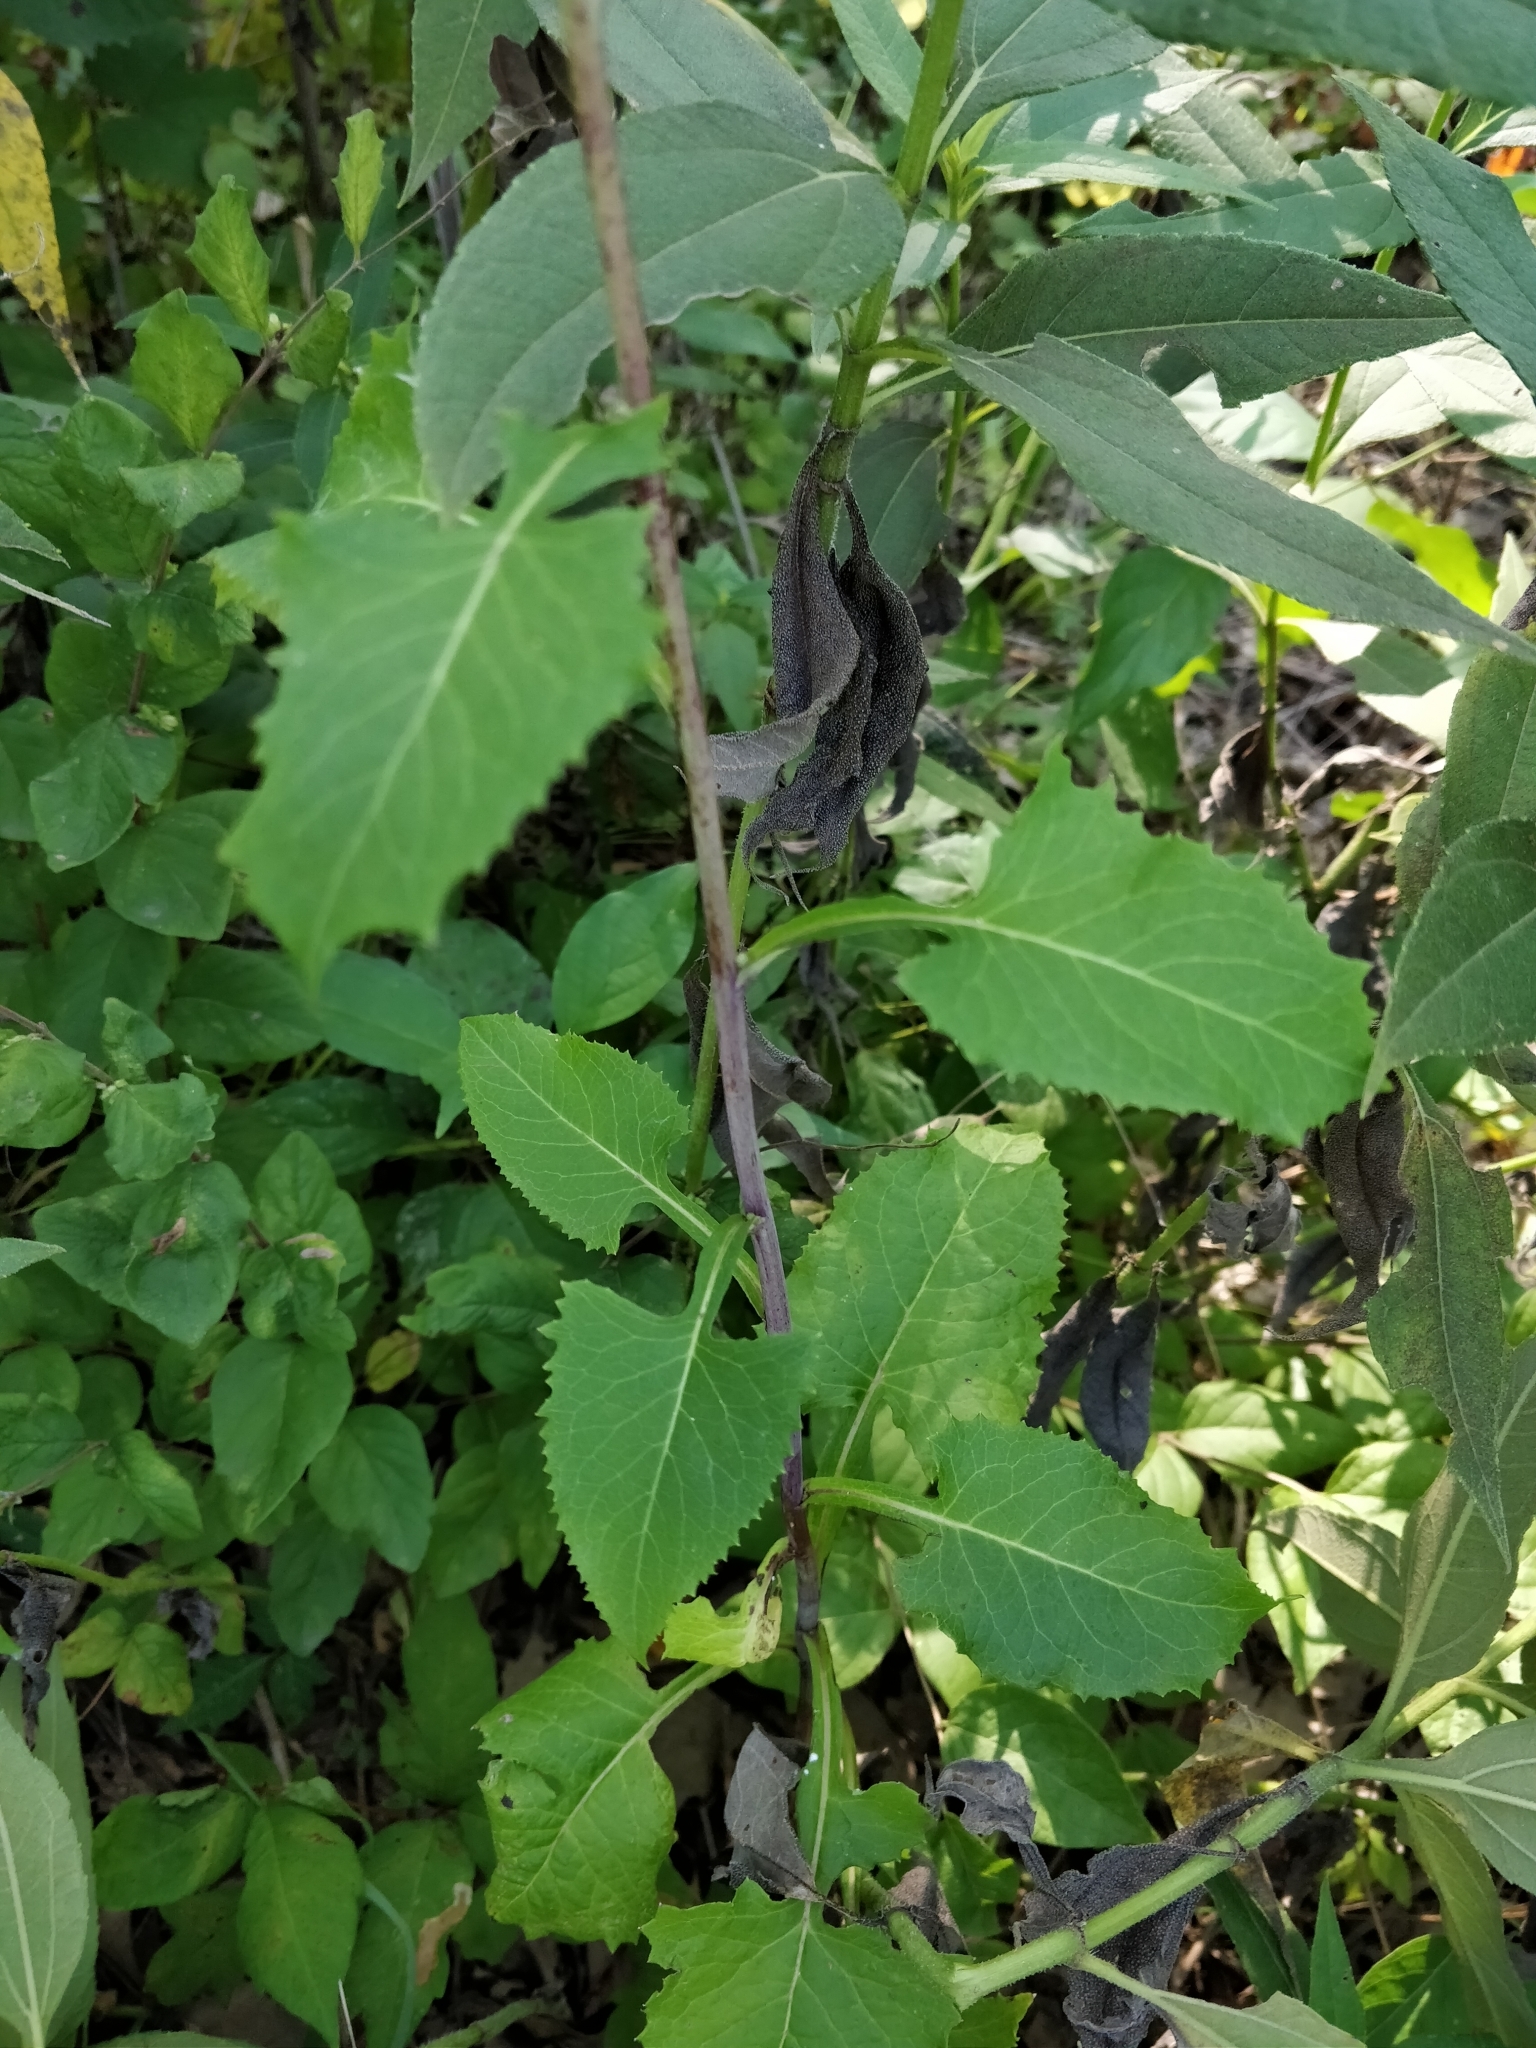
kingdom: Plantae
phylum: Tracheophyta
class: Magnoliopsida
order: Asterales
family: Asteraceae
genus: Lactuca
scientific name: Lactuca floridana
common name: Woodland lettuce
